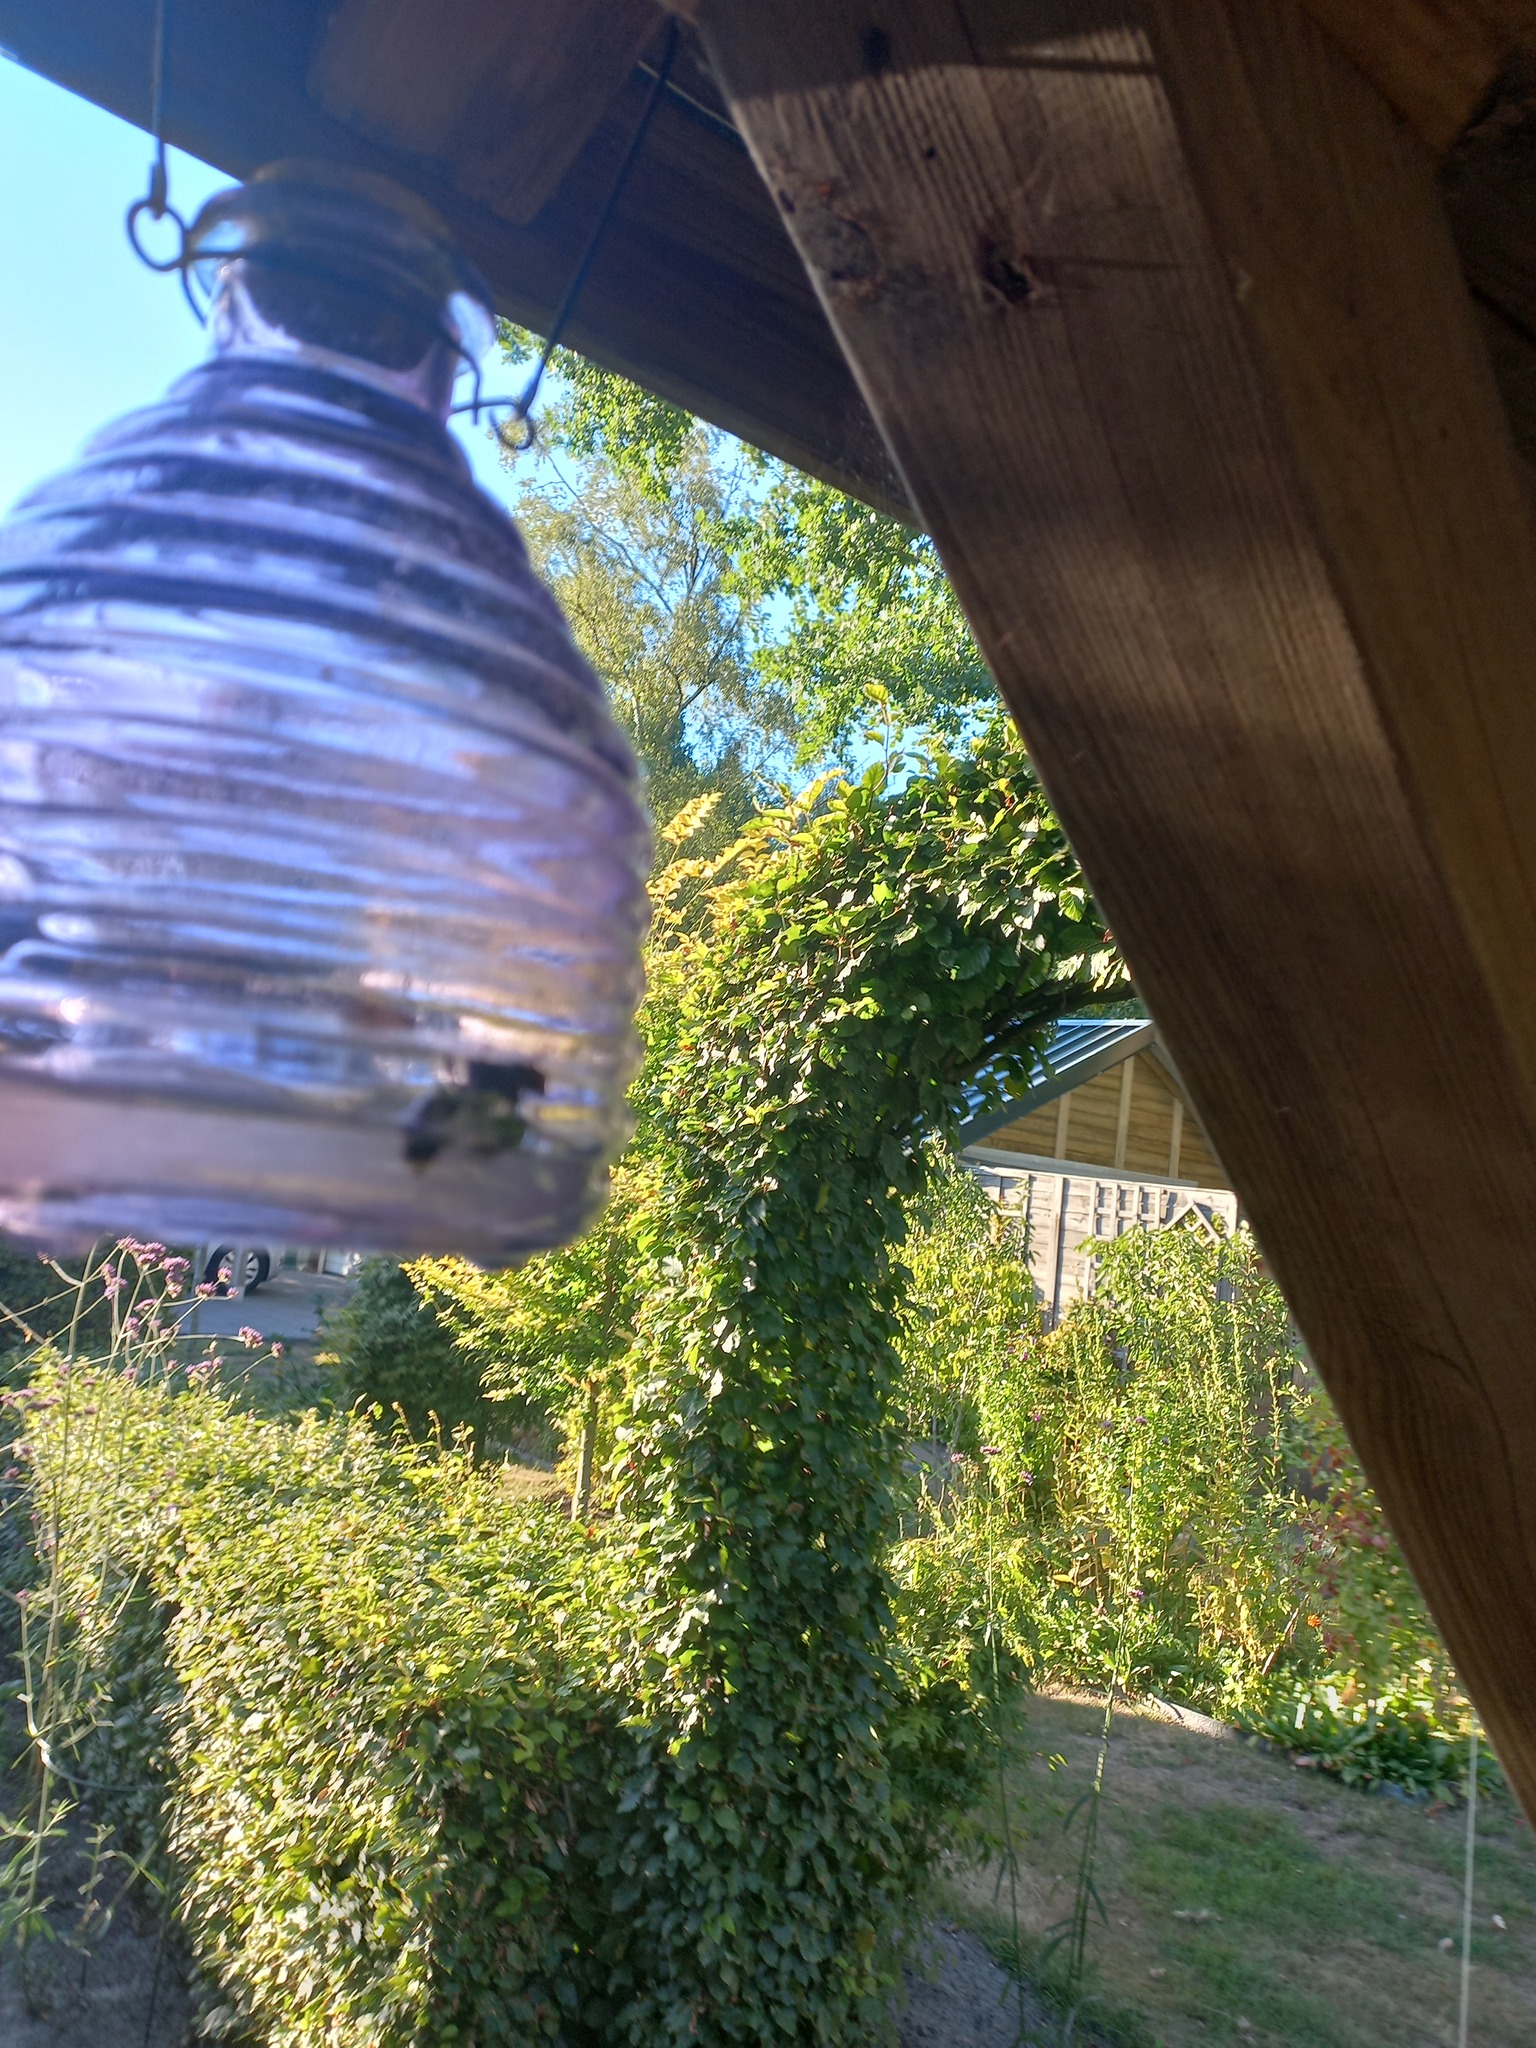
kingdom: Animalia
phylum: Arthropoda
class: Insecta
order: Hymenoptera
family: Vespidae
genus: Vespa
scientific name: Vespa velutina
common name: Asian hornet
